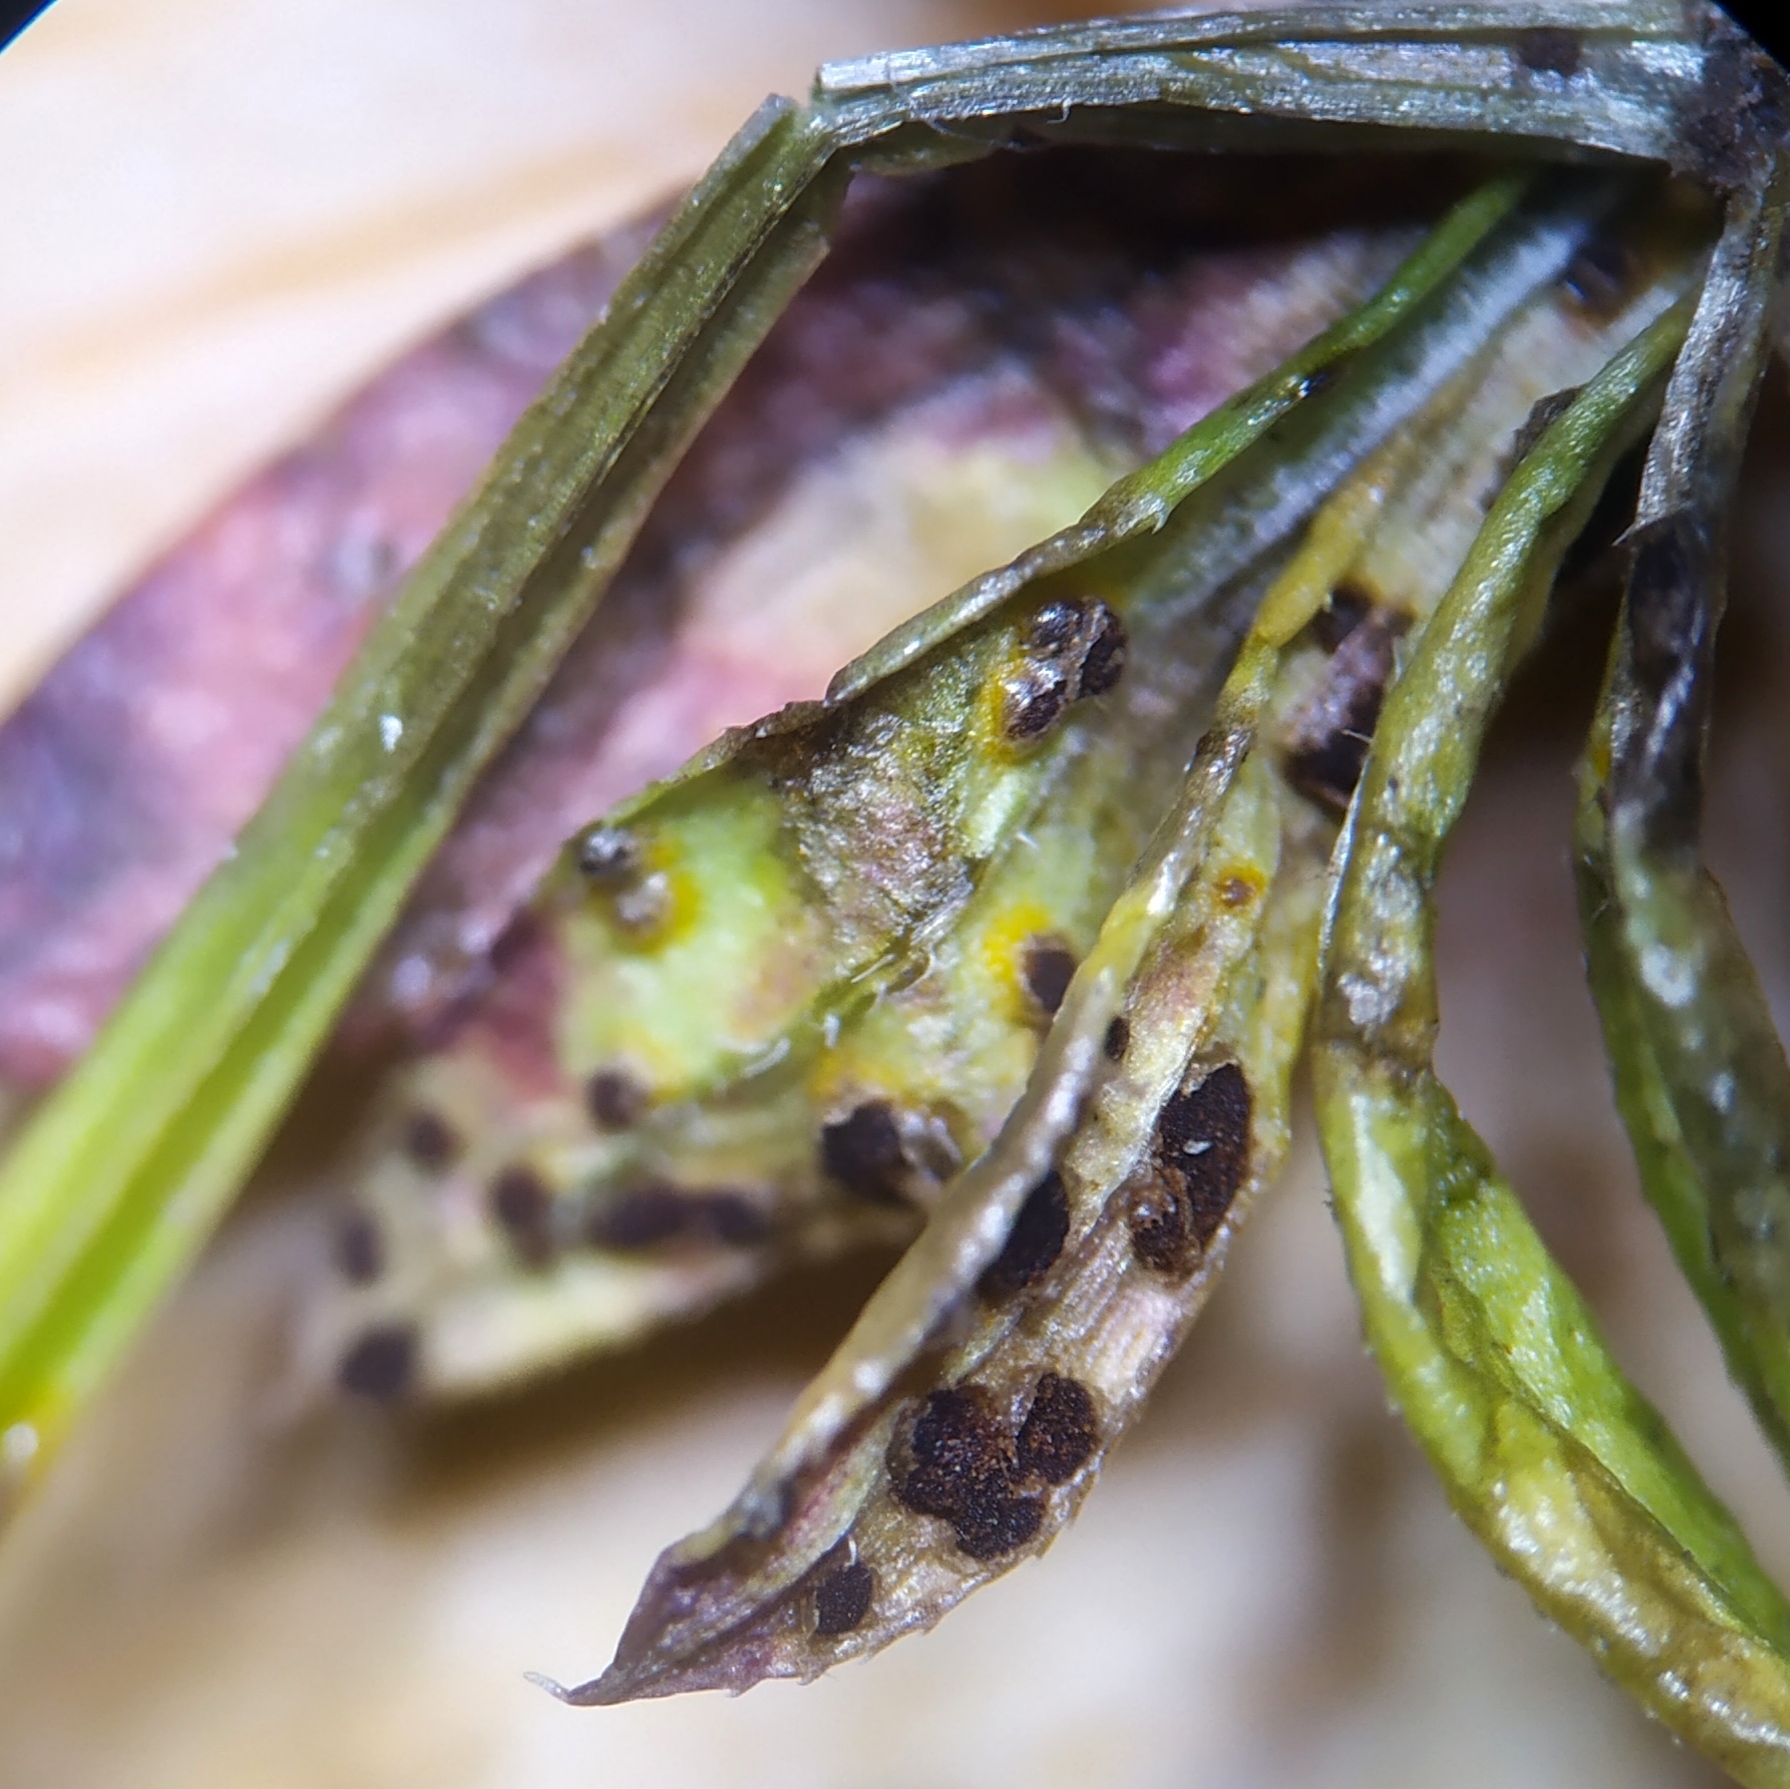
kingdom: Fungi
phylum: Basidiomycota
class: Pucciniomycetes
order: Pucciniales
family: Pucciniaceae
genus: Puccinia
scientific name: Puccinia punctata
